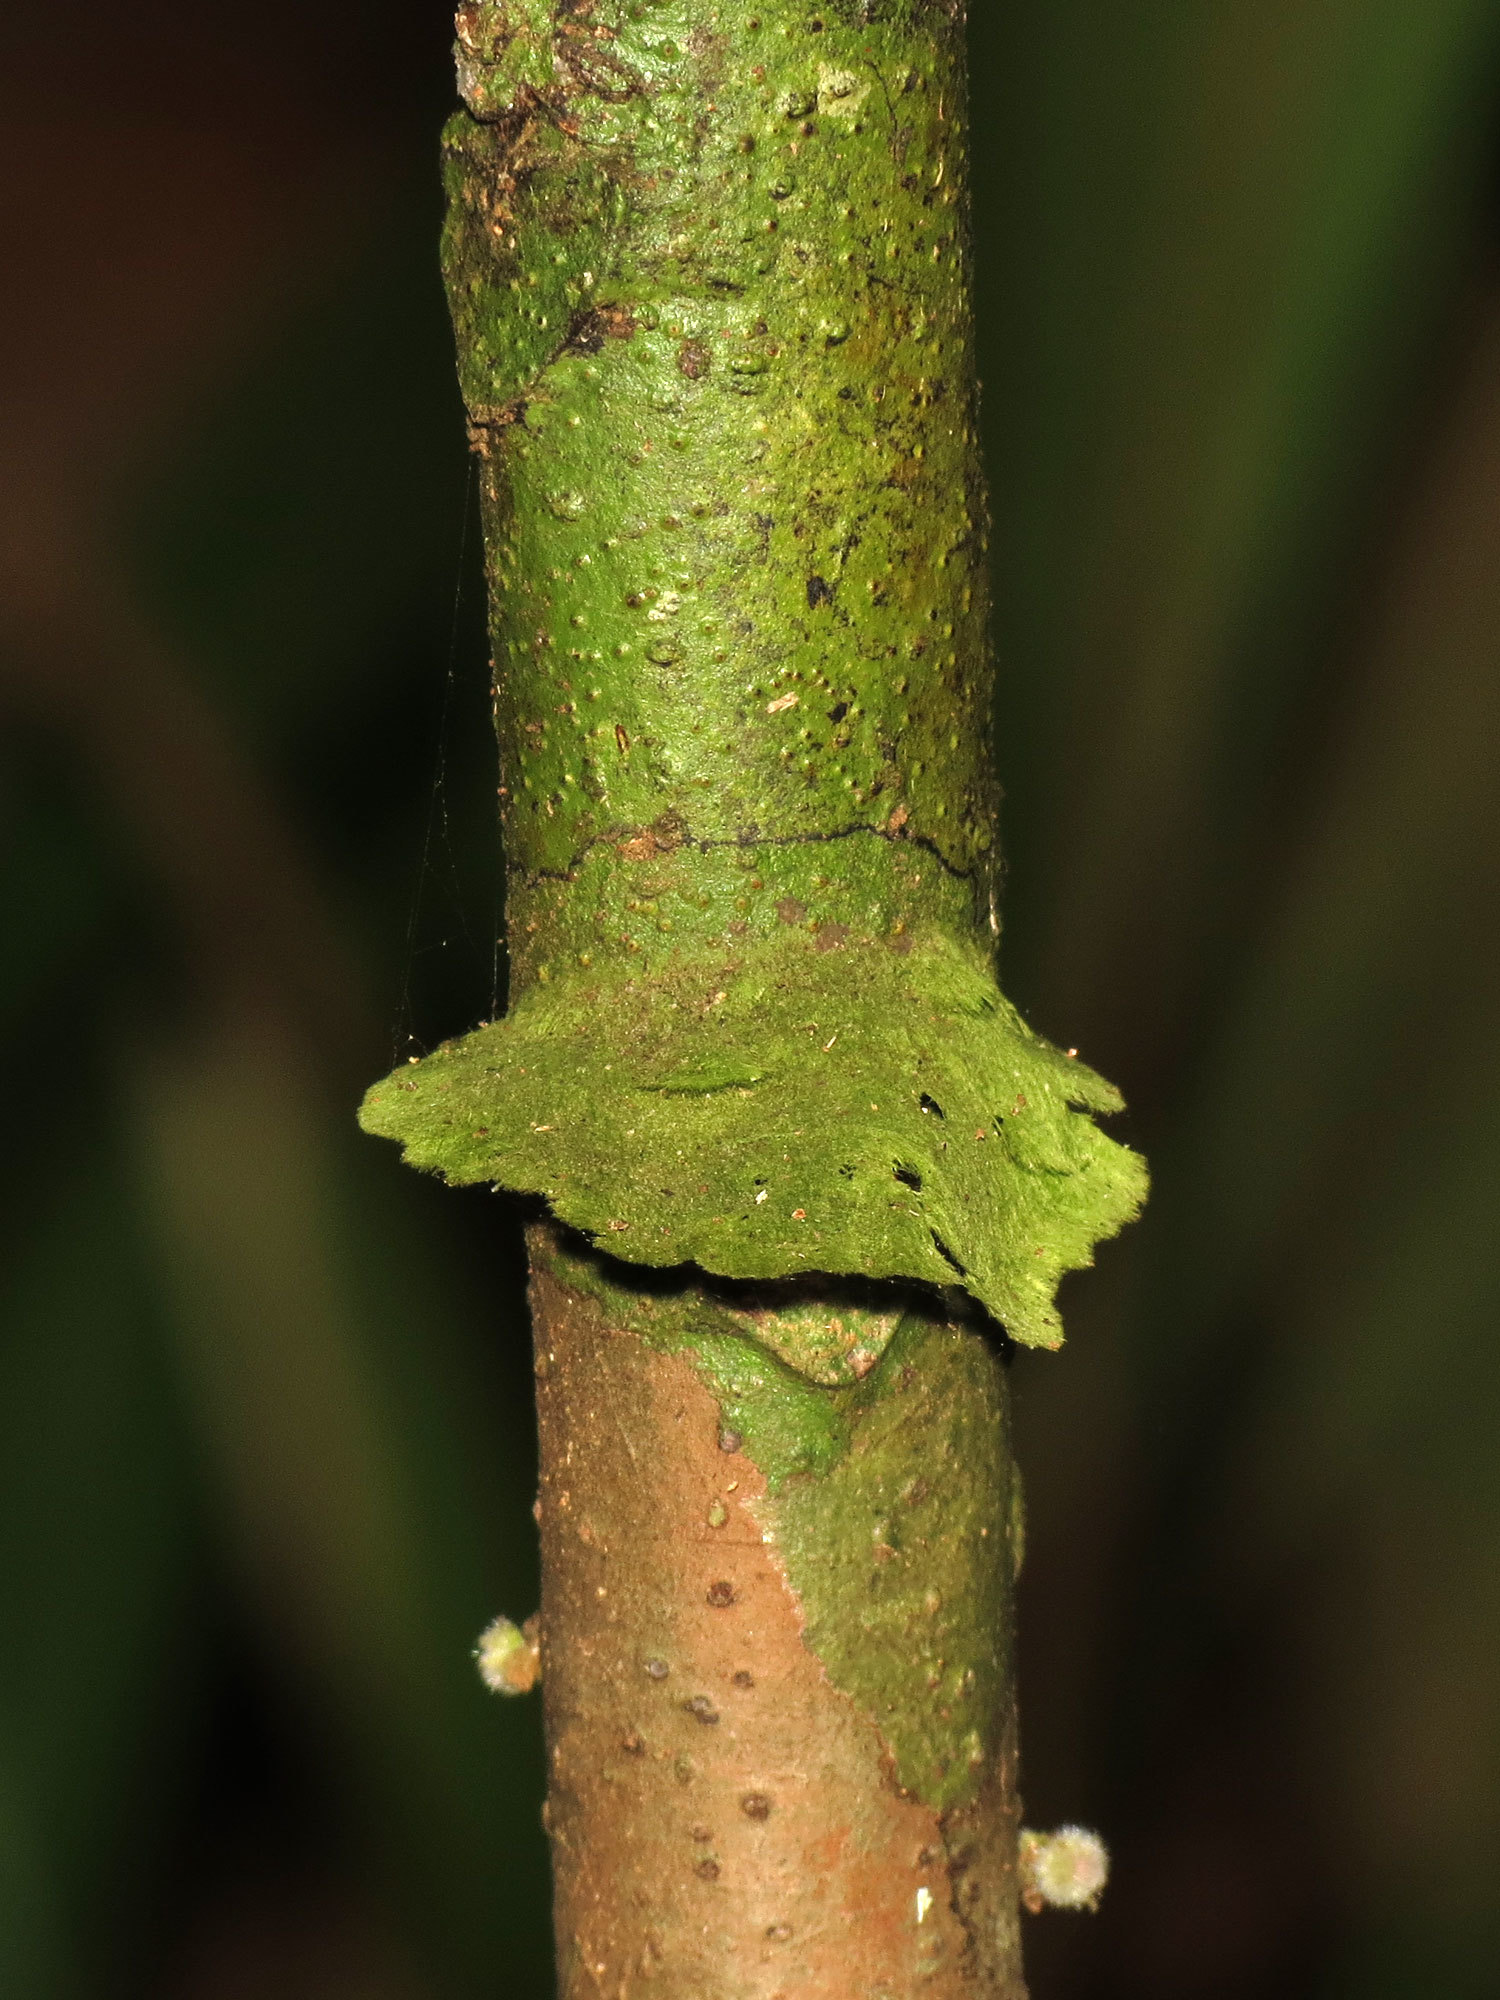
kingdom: Fungi
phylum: Ascomycota
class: Lecanoromycetes
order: Ostropales
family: Coenogoniaceae
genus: Coenogonium
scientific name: Coenogonium linkii
